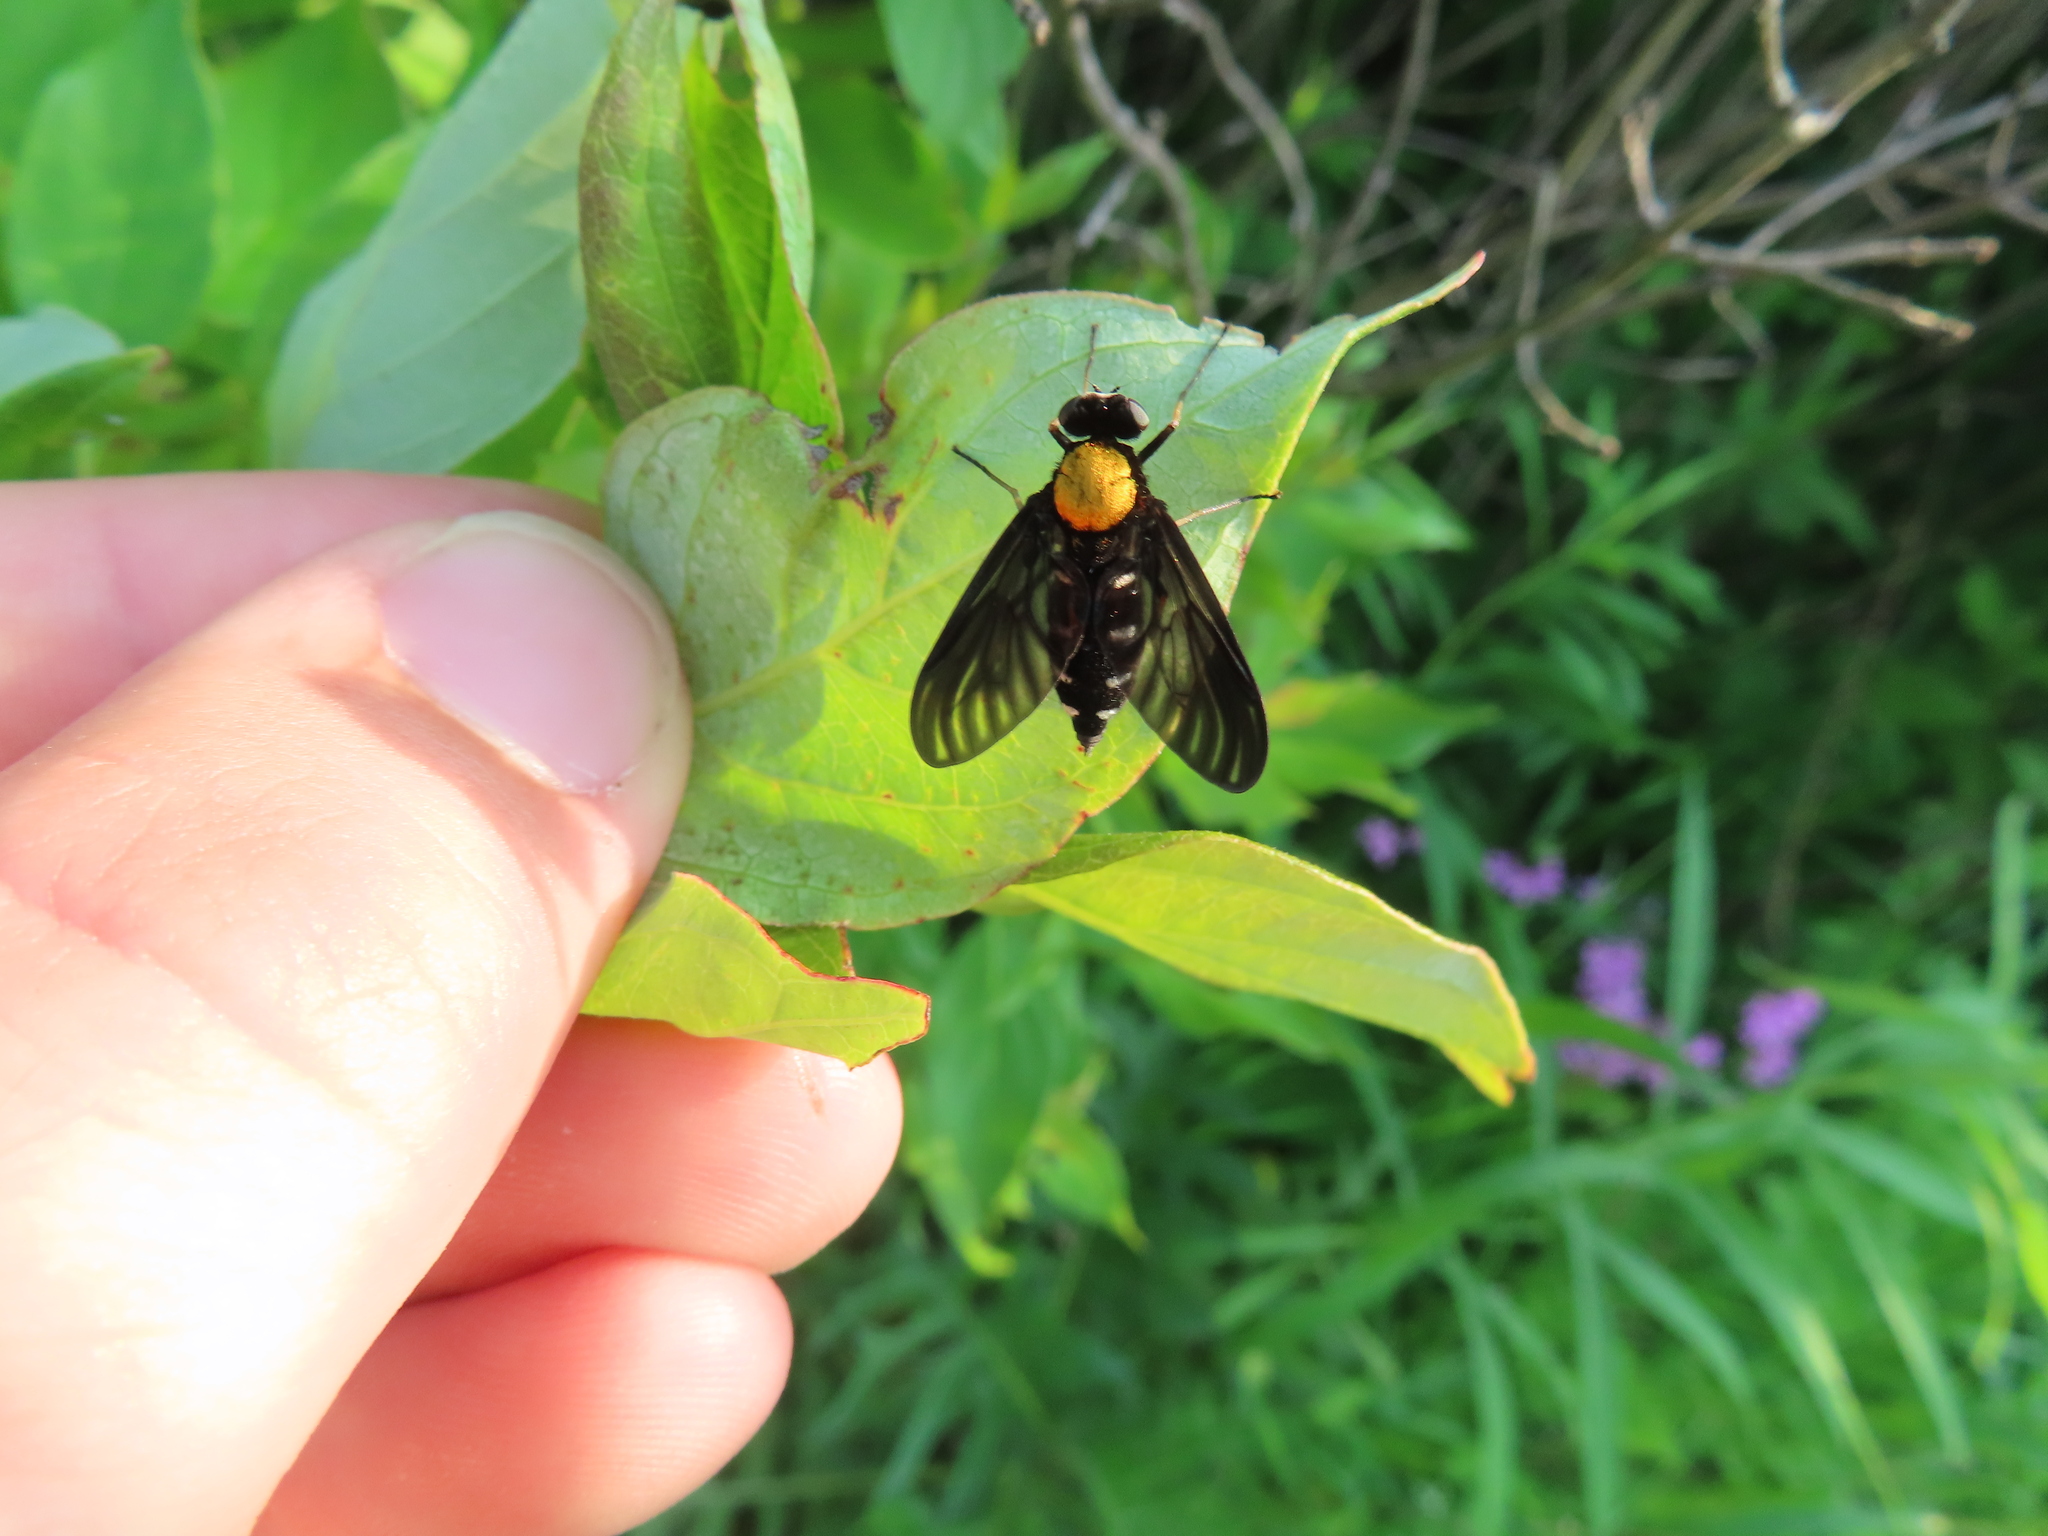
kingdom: Animalia
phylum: Arthropoda
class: Insecta
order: Diptera
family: Rhagionidae
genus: Chrysopilus
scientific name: Chrysopilus thoracicus
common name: Golden-backed snipe fly
